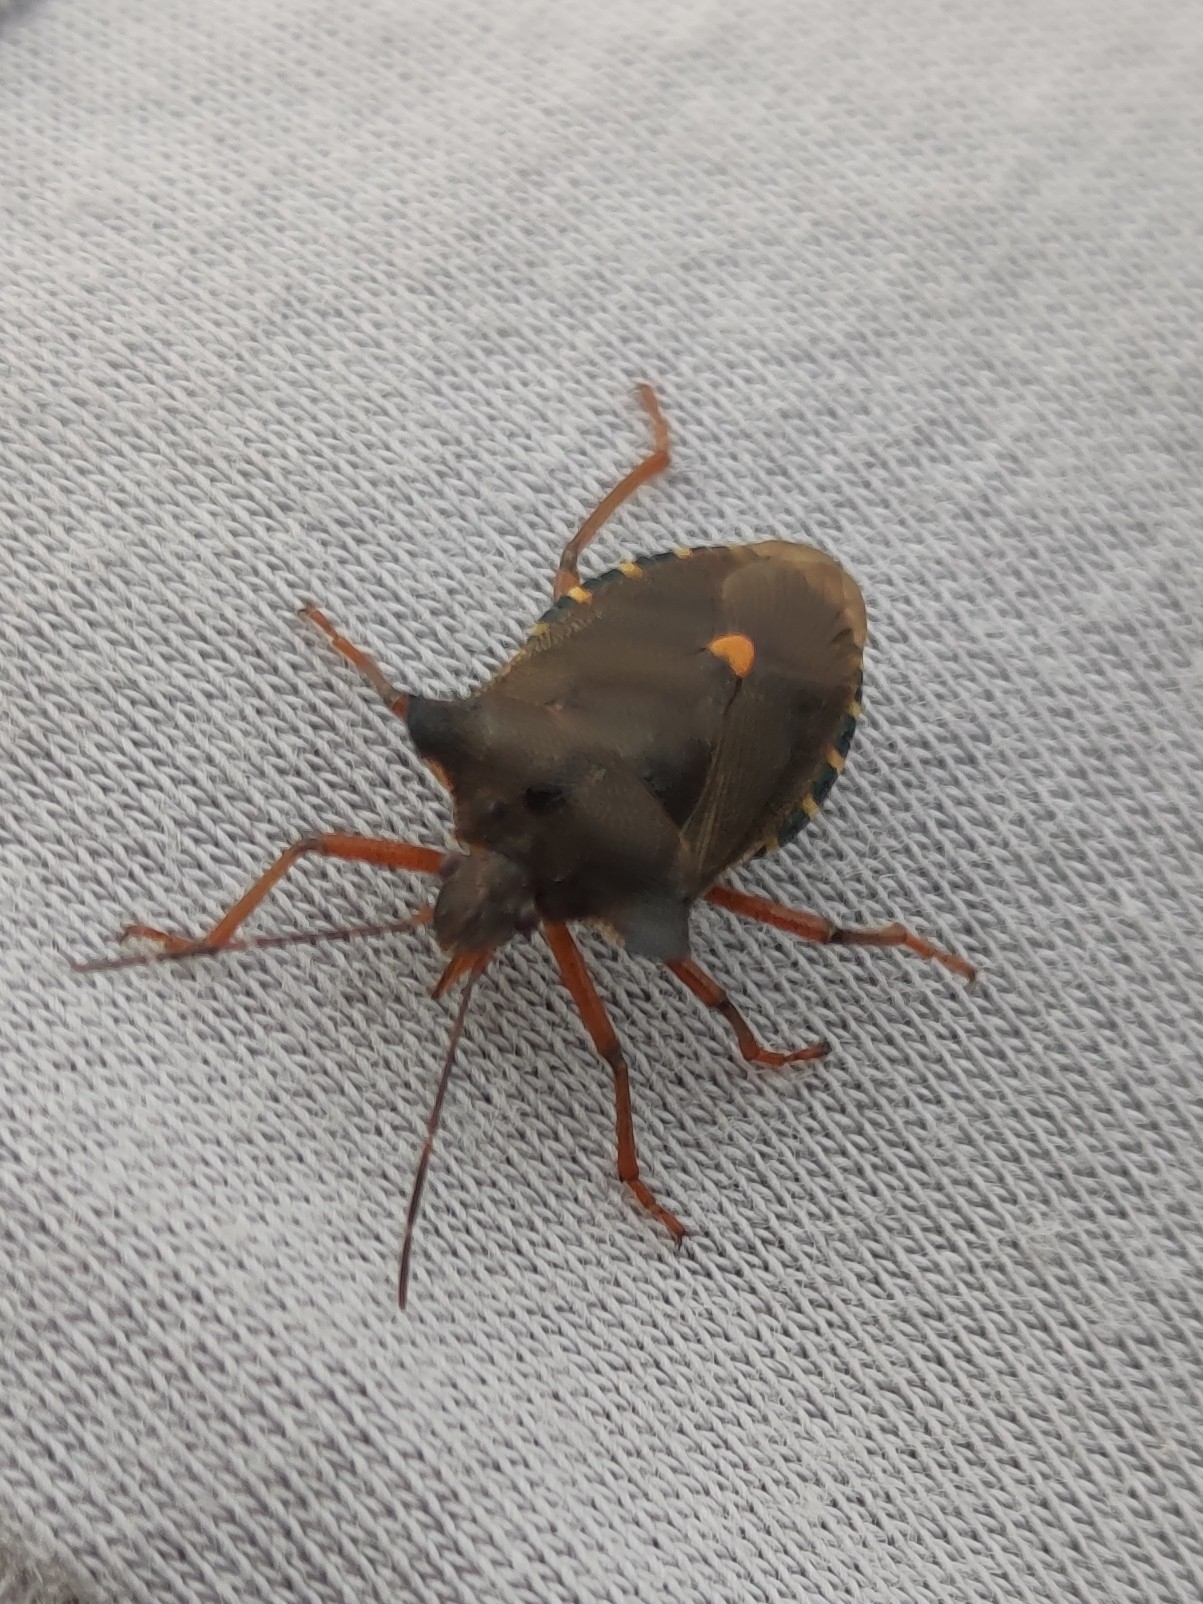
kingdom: Animalia
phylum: Arthropoda
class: Insecta
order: Hemiptera
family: Pentatomidae
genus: Pentatoma
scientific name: Pentatoma rufipes
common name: Forest bug
